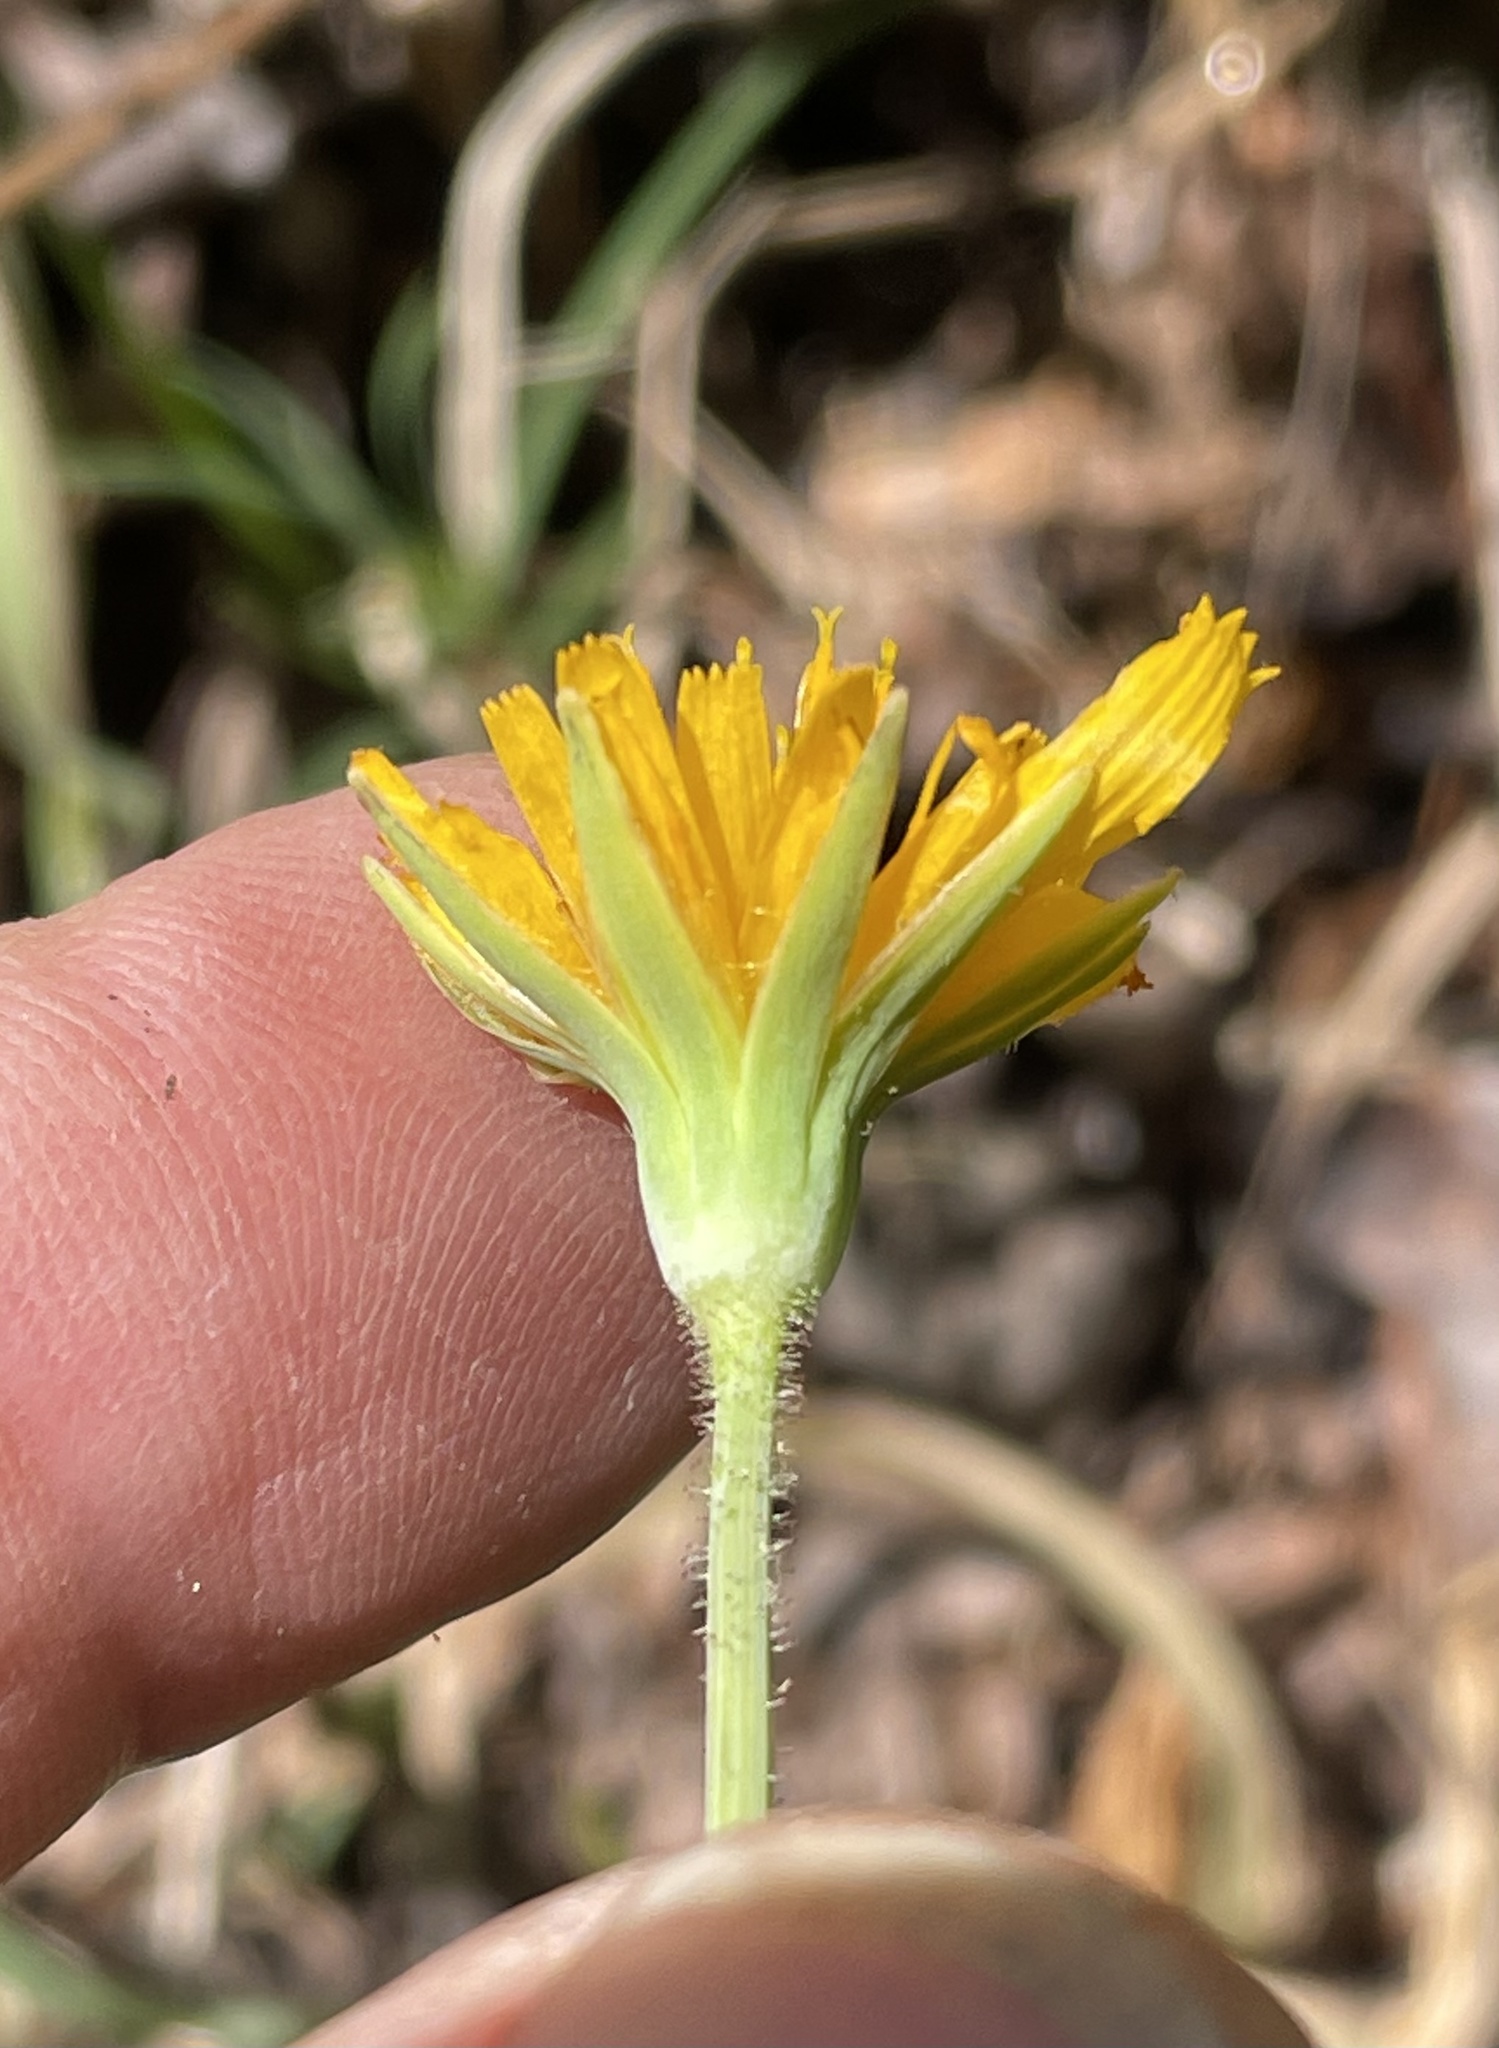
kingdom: Plantae
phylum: Tracheophyta
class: Magnoliopsida
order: Asterales
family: Asteraceae
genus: Krigia
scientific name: Krigia dandelion
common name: Colonial dwarf-dandelion
